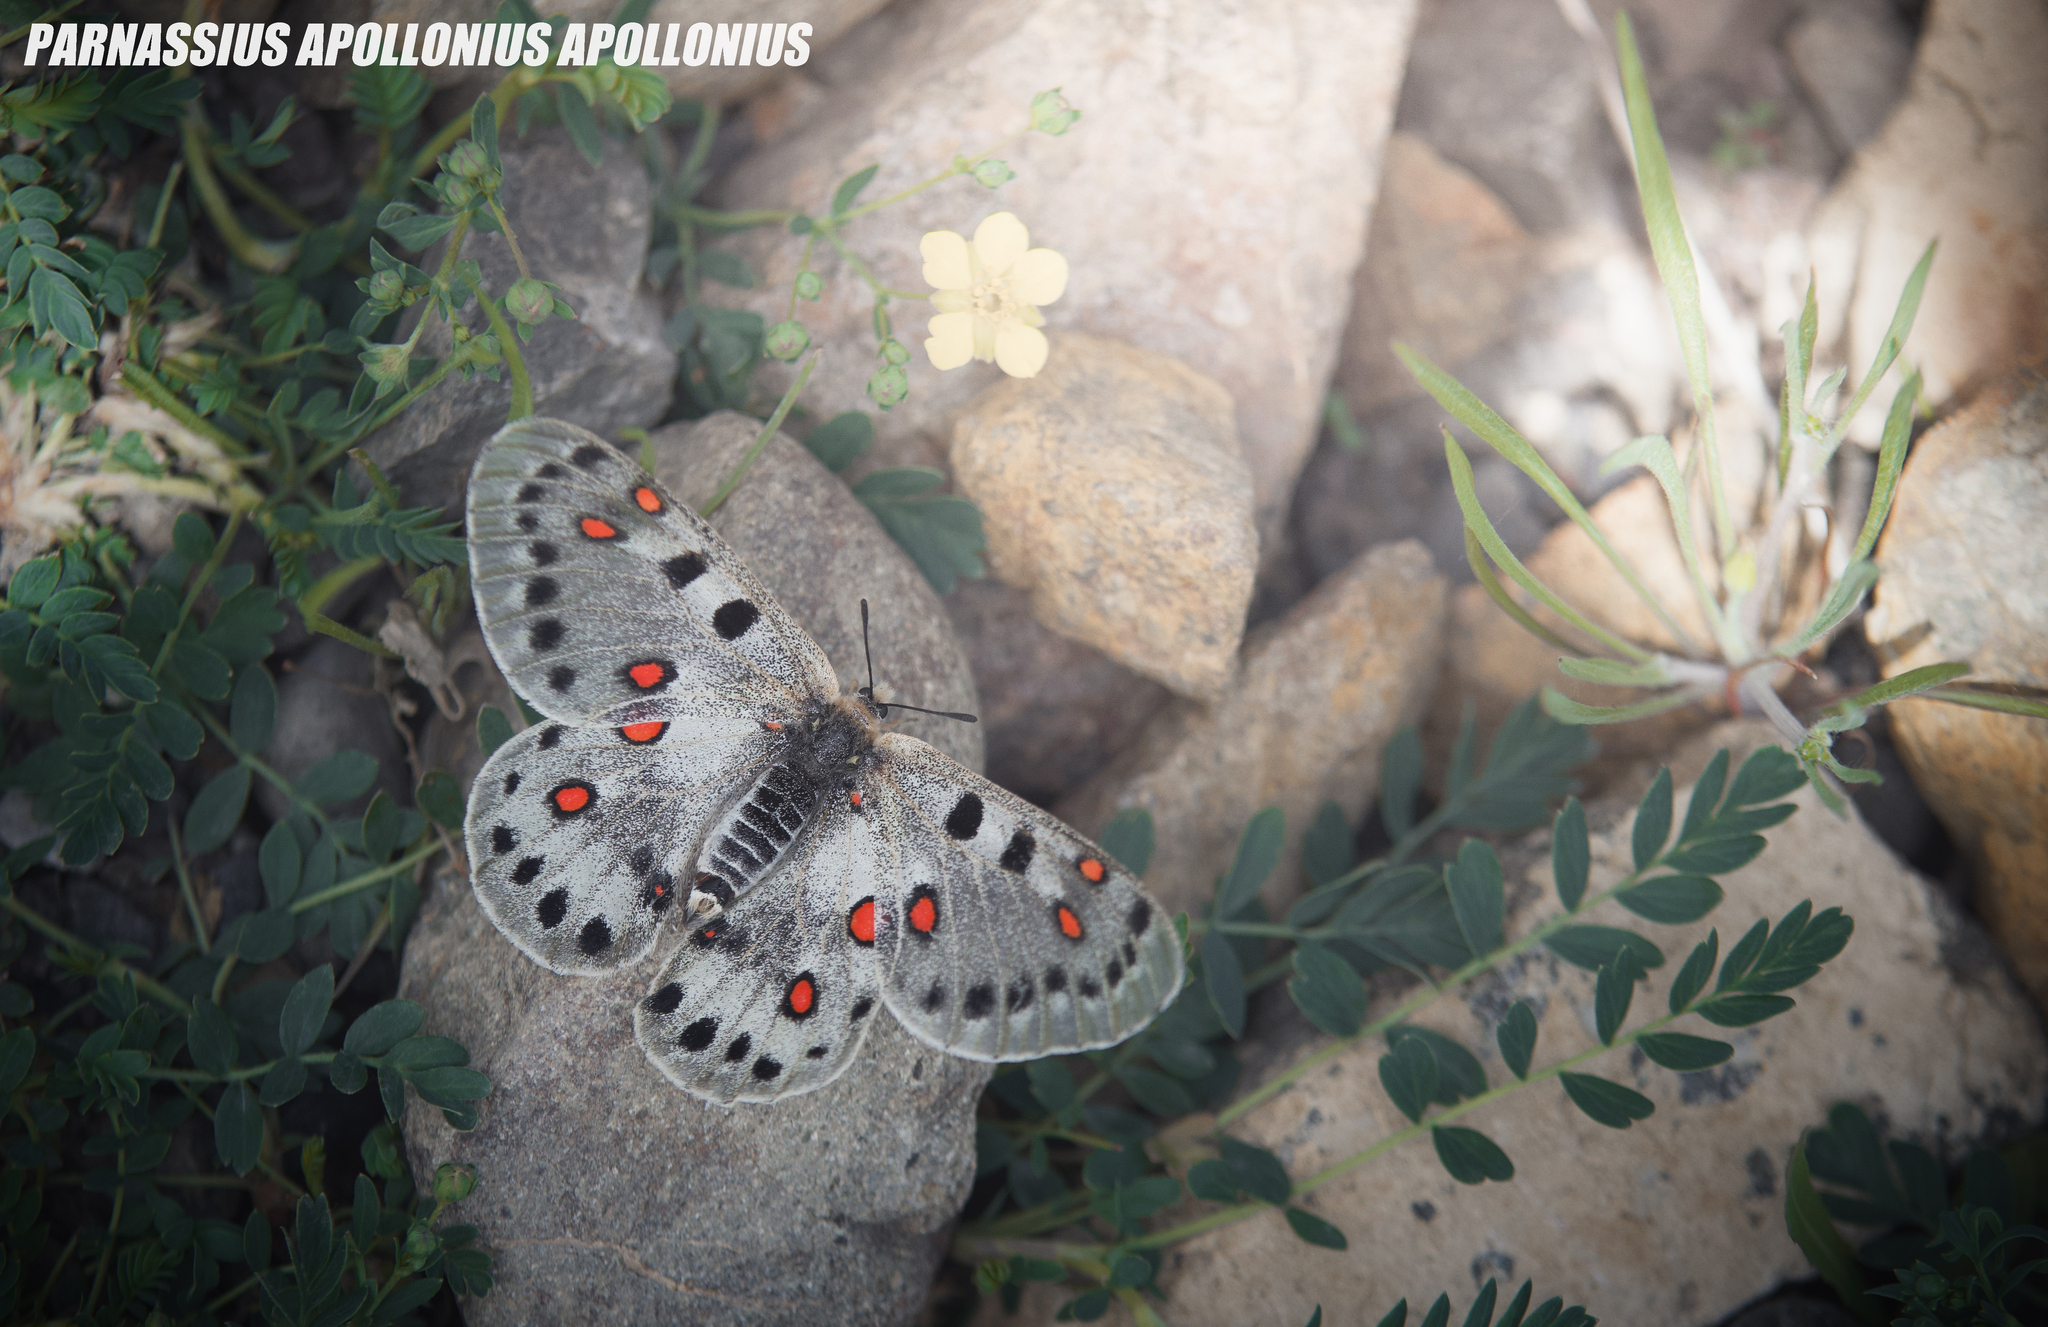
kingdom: Animalia
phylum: Arthropoda
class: Insecta
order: Lepidoptera
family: Papilionidae
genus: Parnassius
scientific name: Parnassius apollonius
